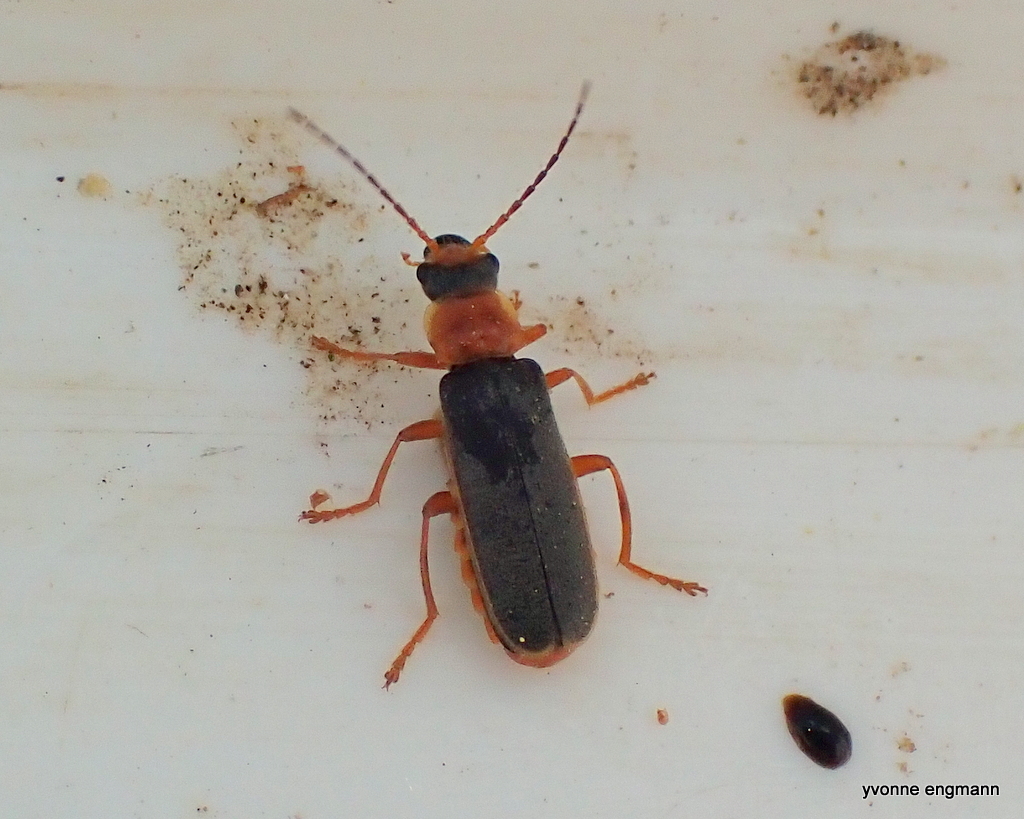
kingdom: Animalia
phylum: Arthropoda
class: Insecta
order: Coleoptera
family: Cantharidae
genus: Cantharis
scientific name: Cantharis lateralis
